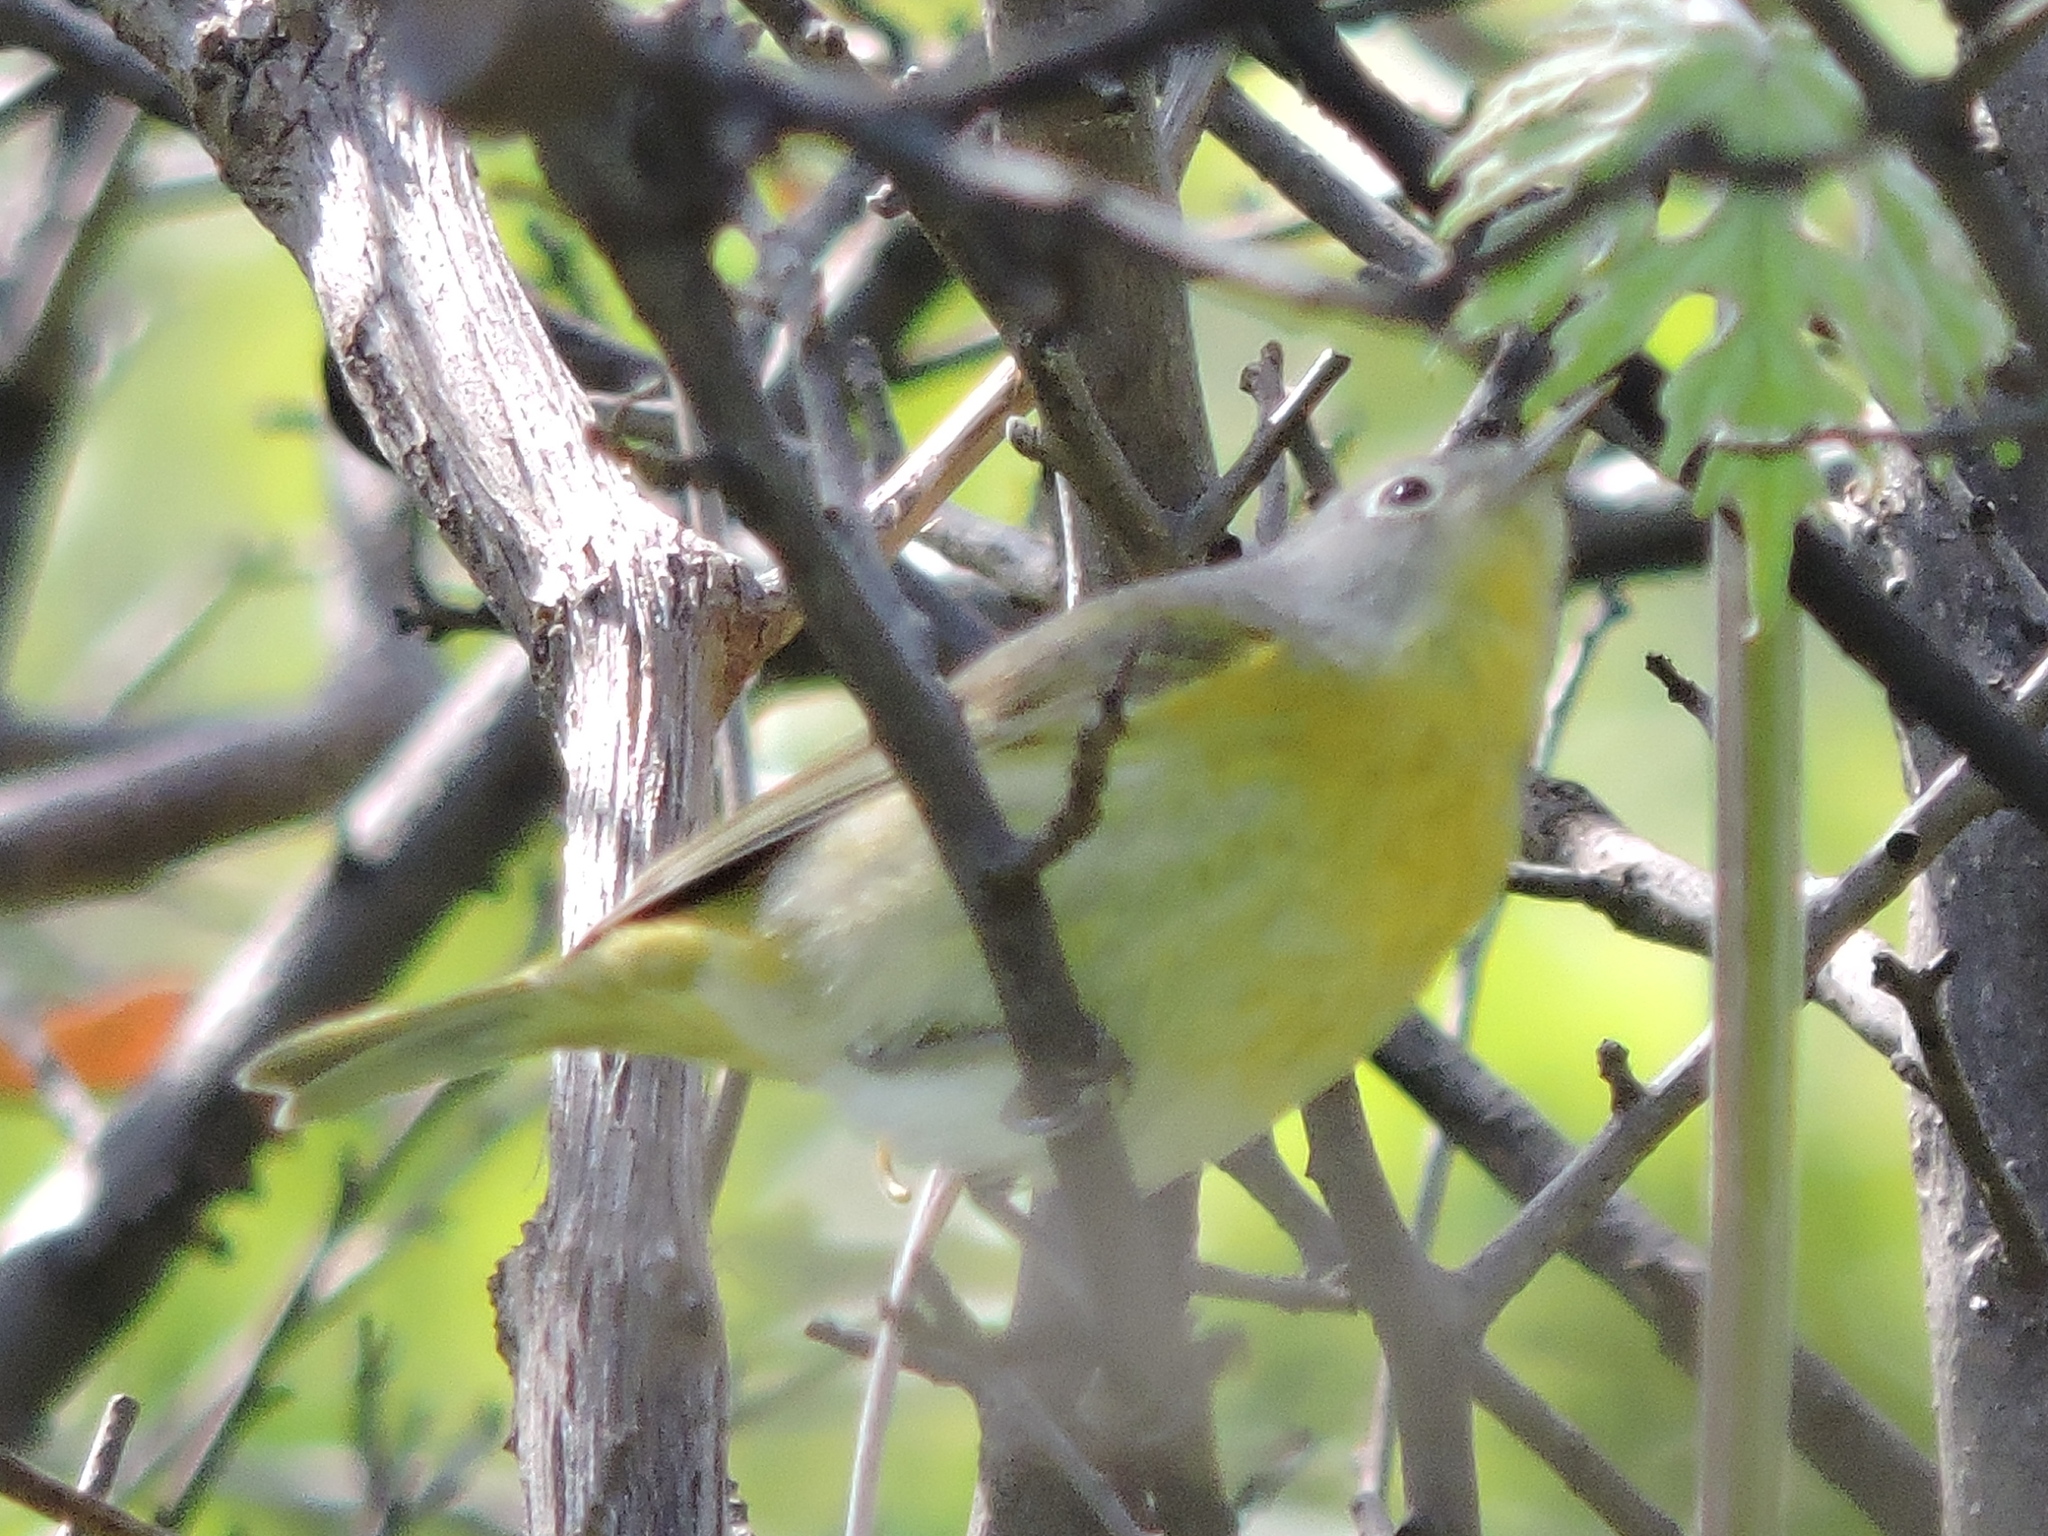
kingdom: Animalia
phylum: Chordata
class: Aves
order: Passeriformes
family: Parulidae
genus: Leiothlypis
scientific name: Leiothlypis ruficapilla
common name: Nashville warbler
